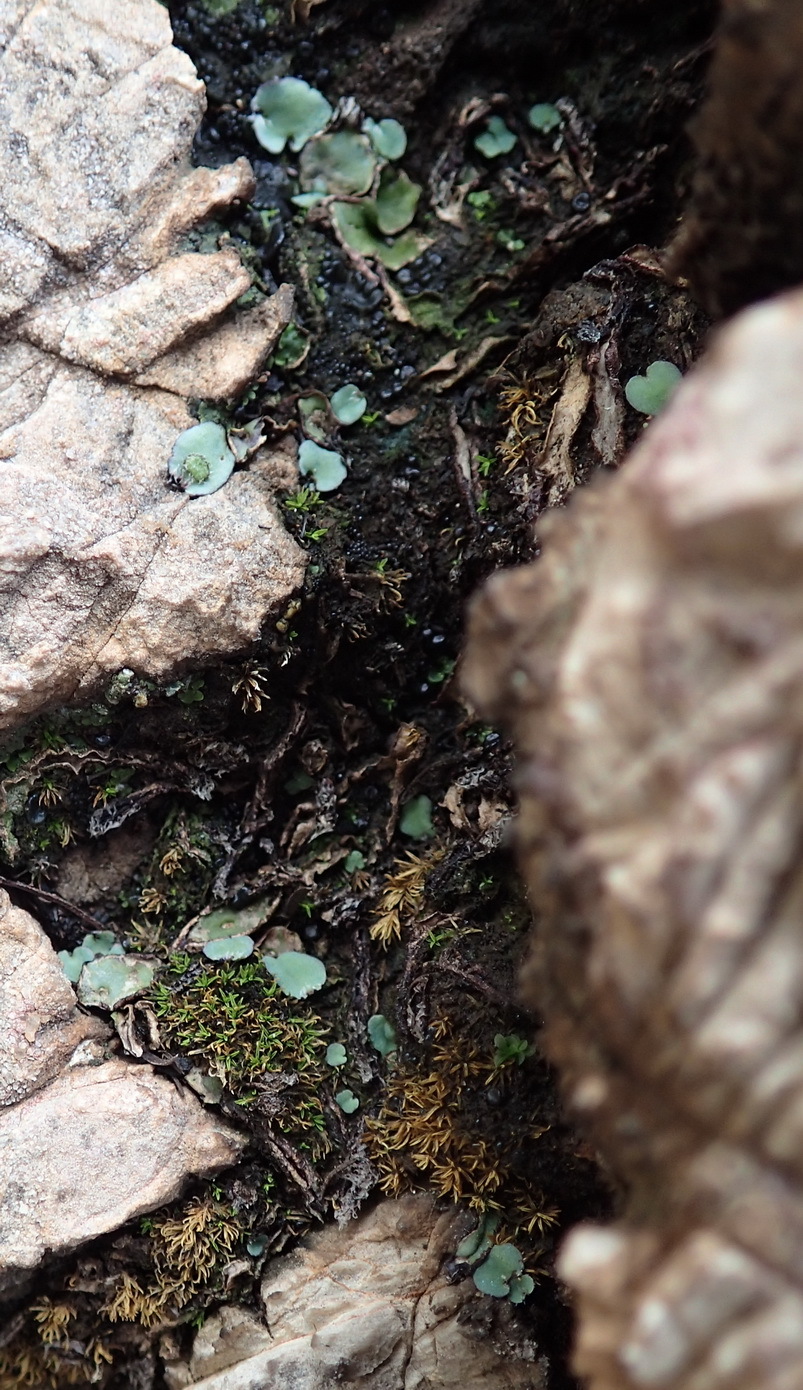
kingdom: Plantae
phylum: Marchantiophyta
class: Marchantiopsida
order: Marchantiales
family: Aytoniaceae
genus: Plagiochasma
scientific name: Plagiochasma rupestre
